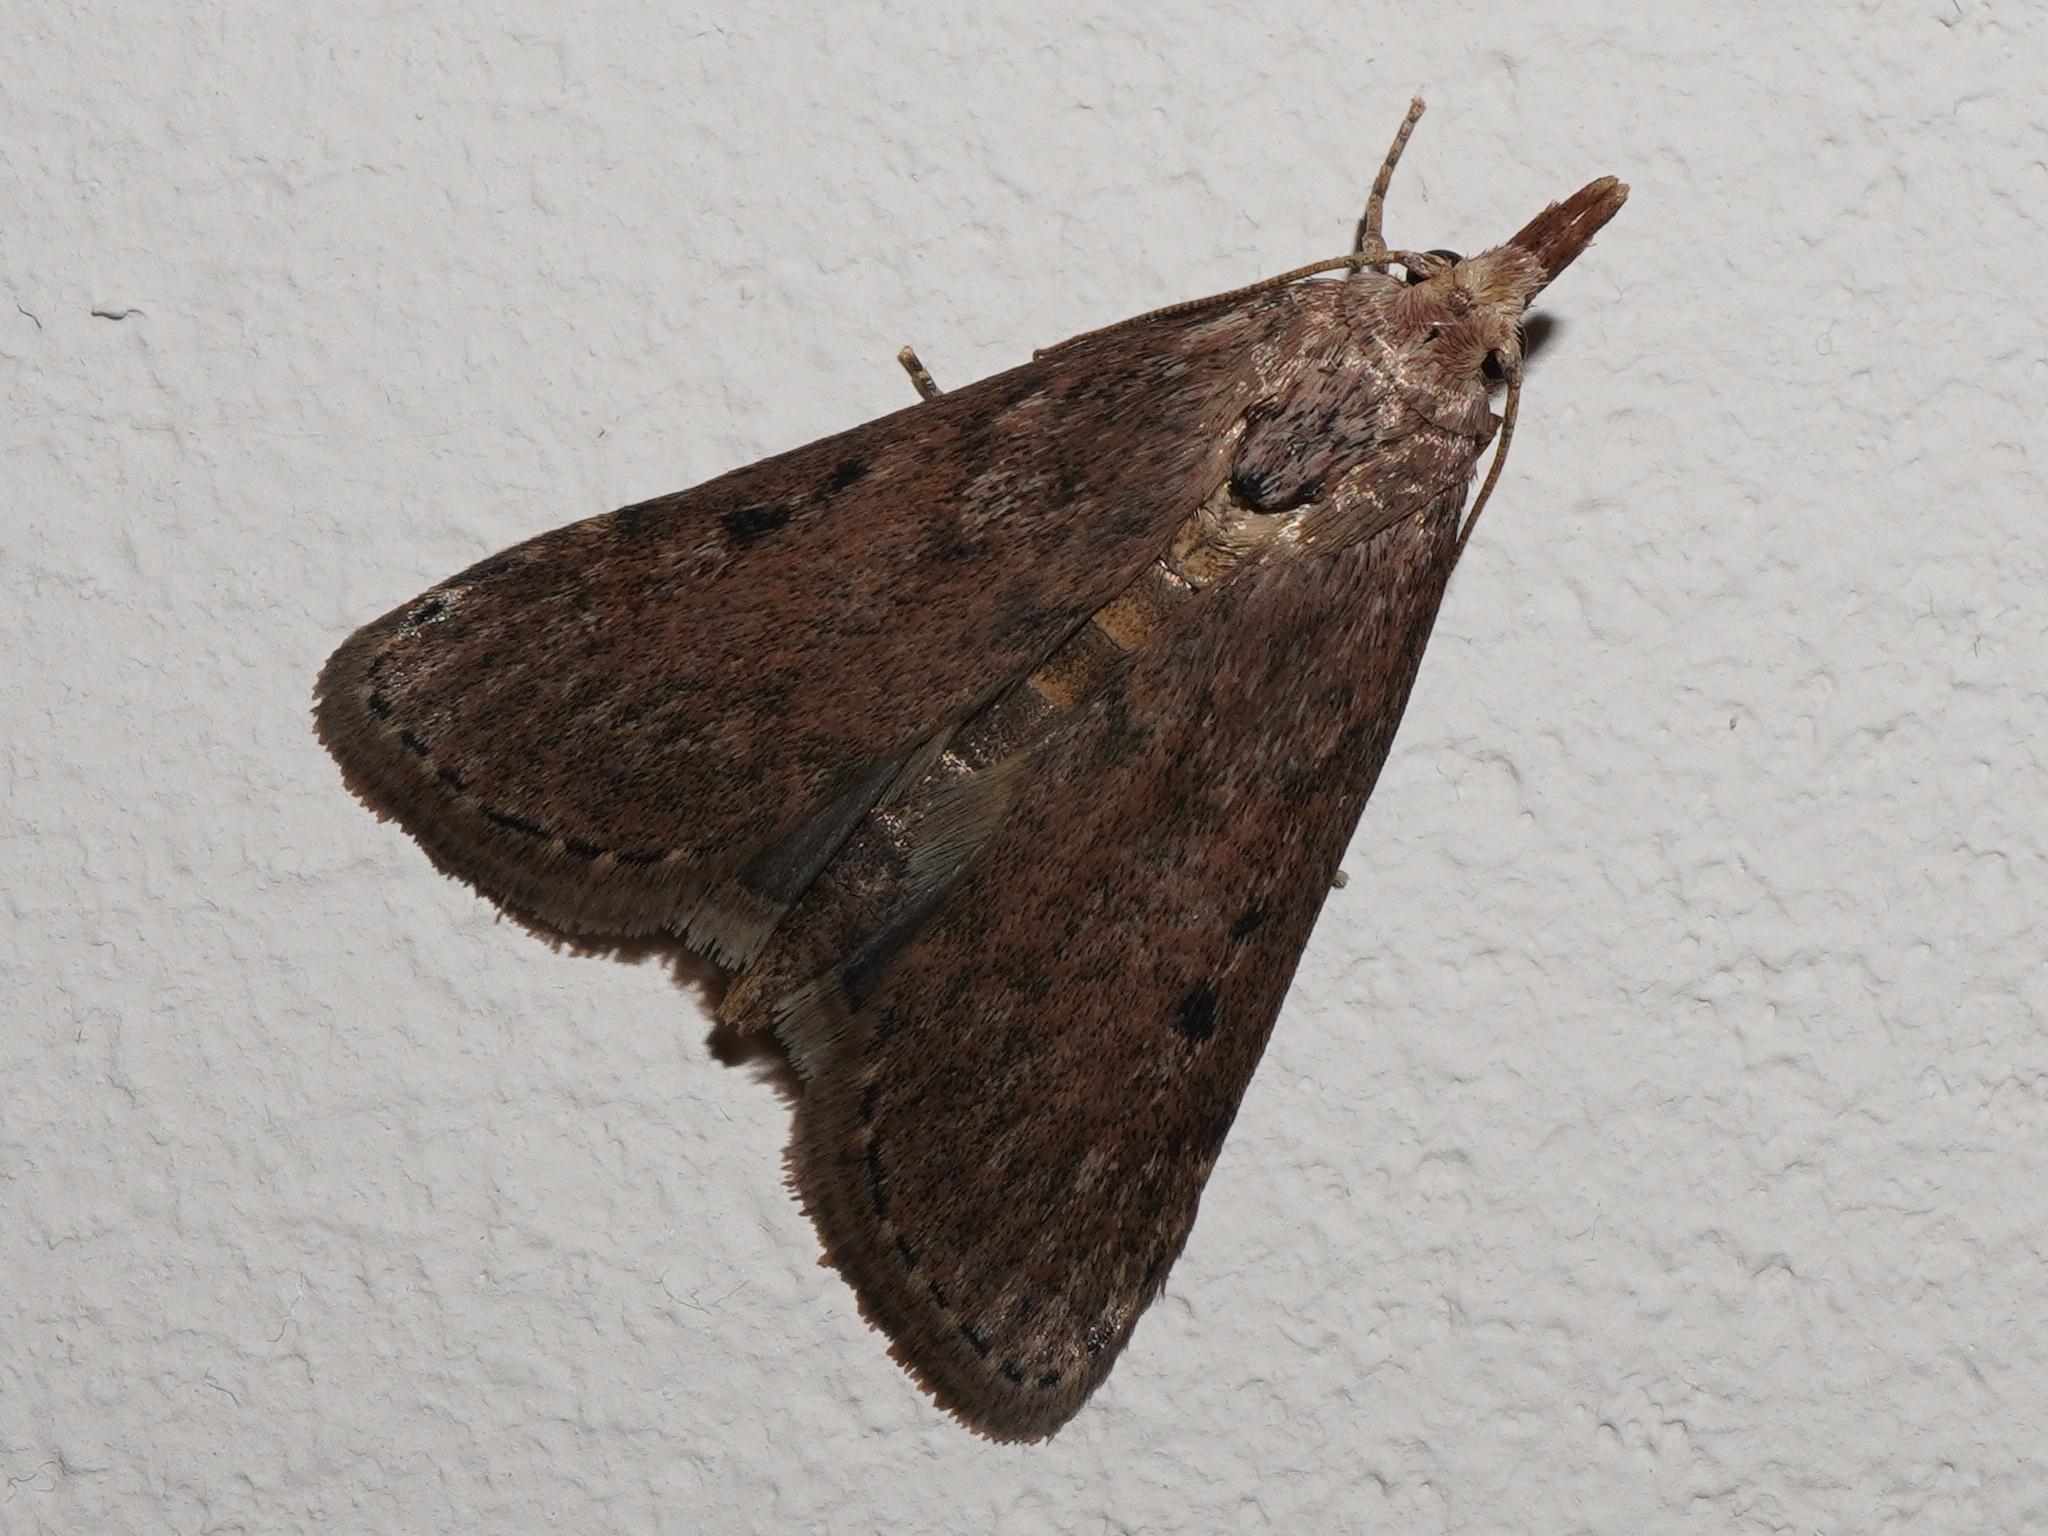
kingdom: Animalia
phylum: Arthropoda
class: Insecta
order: Lepidoptera
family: Pyralidae
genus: Aphomia
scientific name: Aphomia sociella
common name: Bee moth
